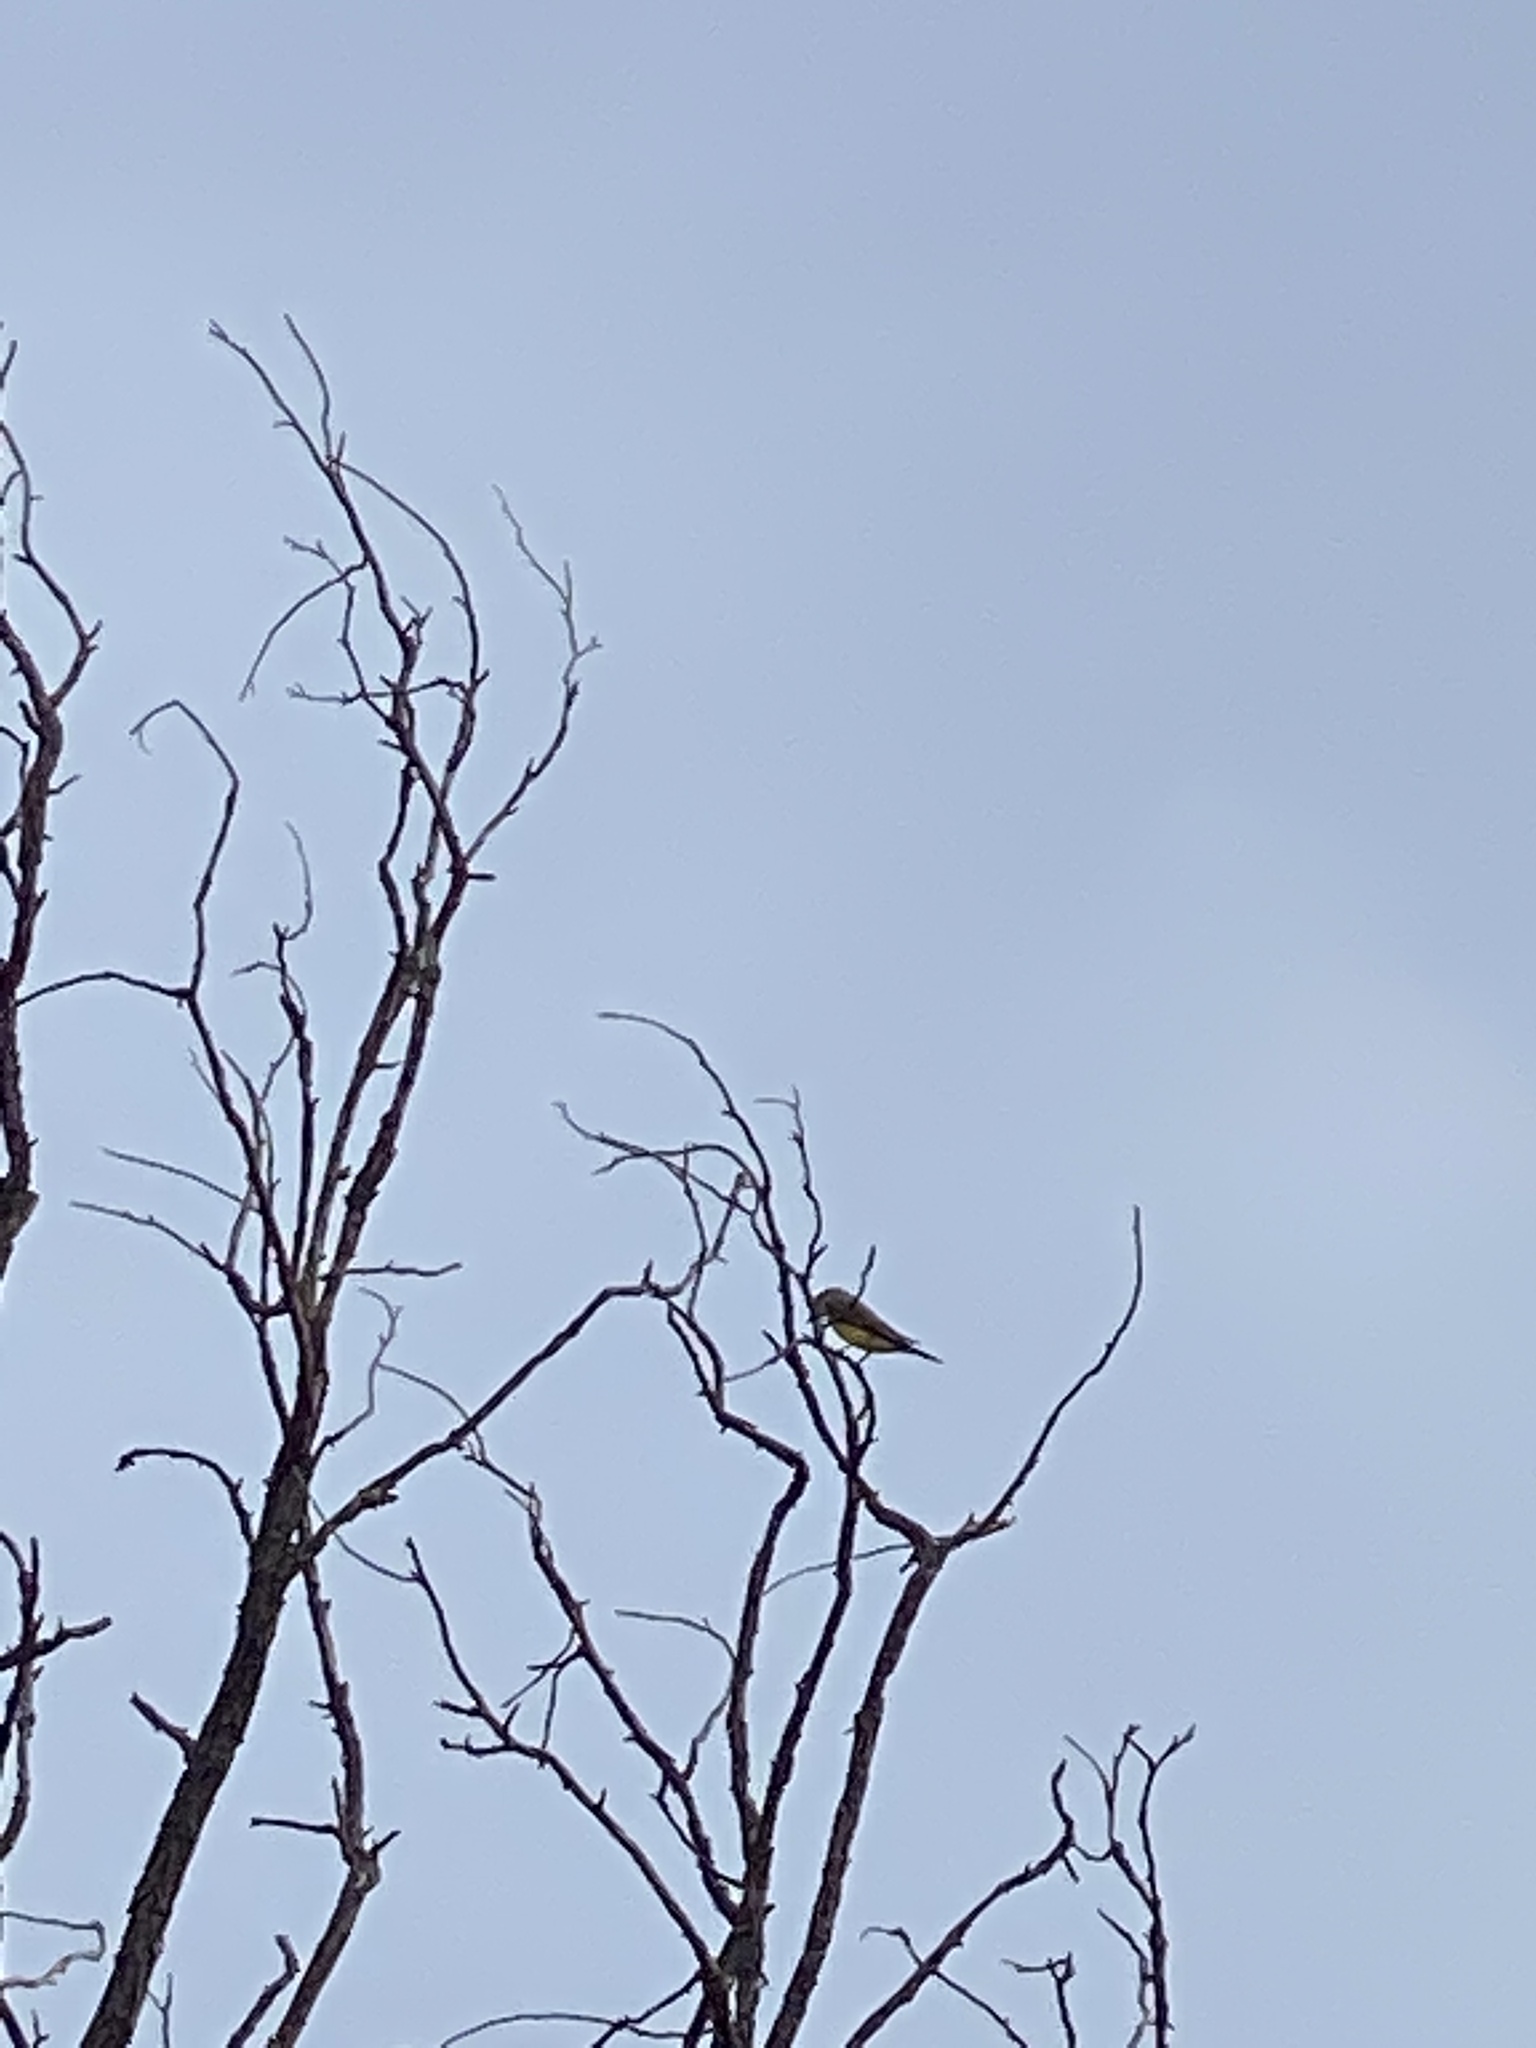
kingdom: Animalia
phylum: Chordata
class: Aves
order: Passeriformes
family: Tyrannidae
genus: Tyrannus
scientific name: Tyrannus verticalis
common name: Western kingbird
